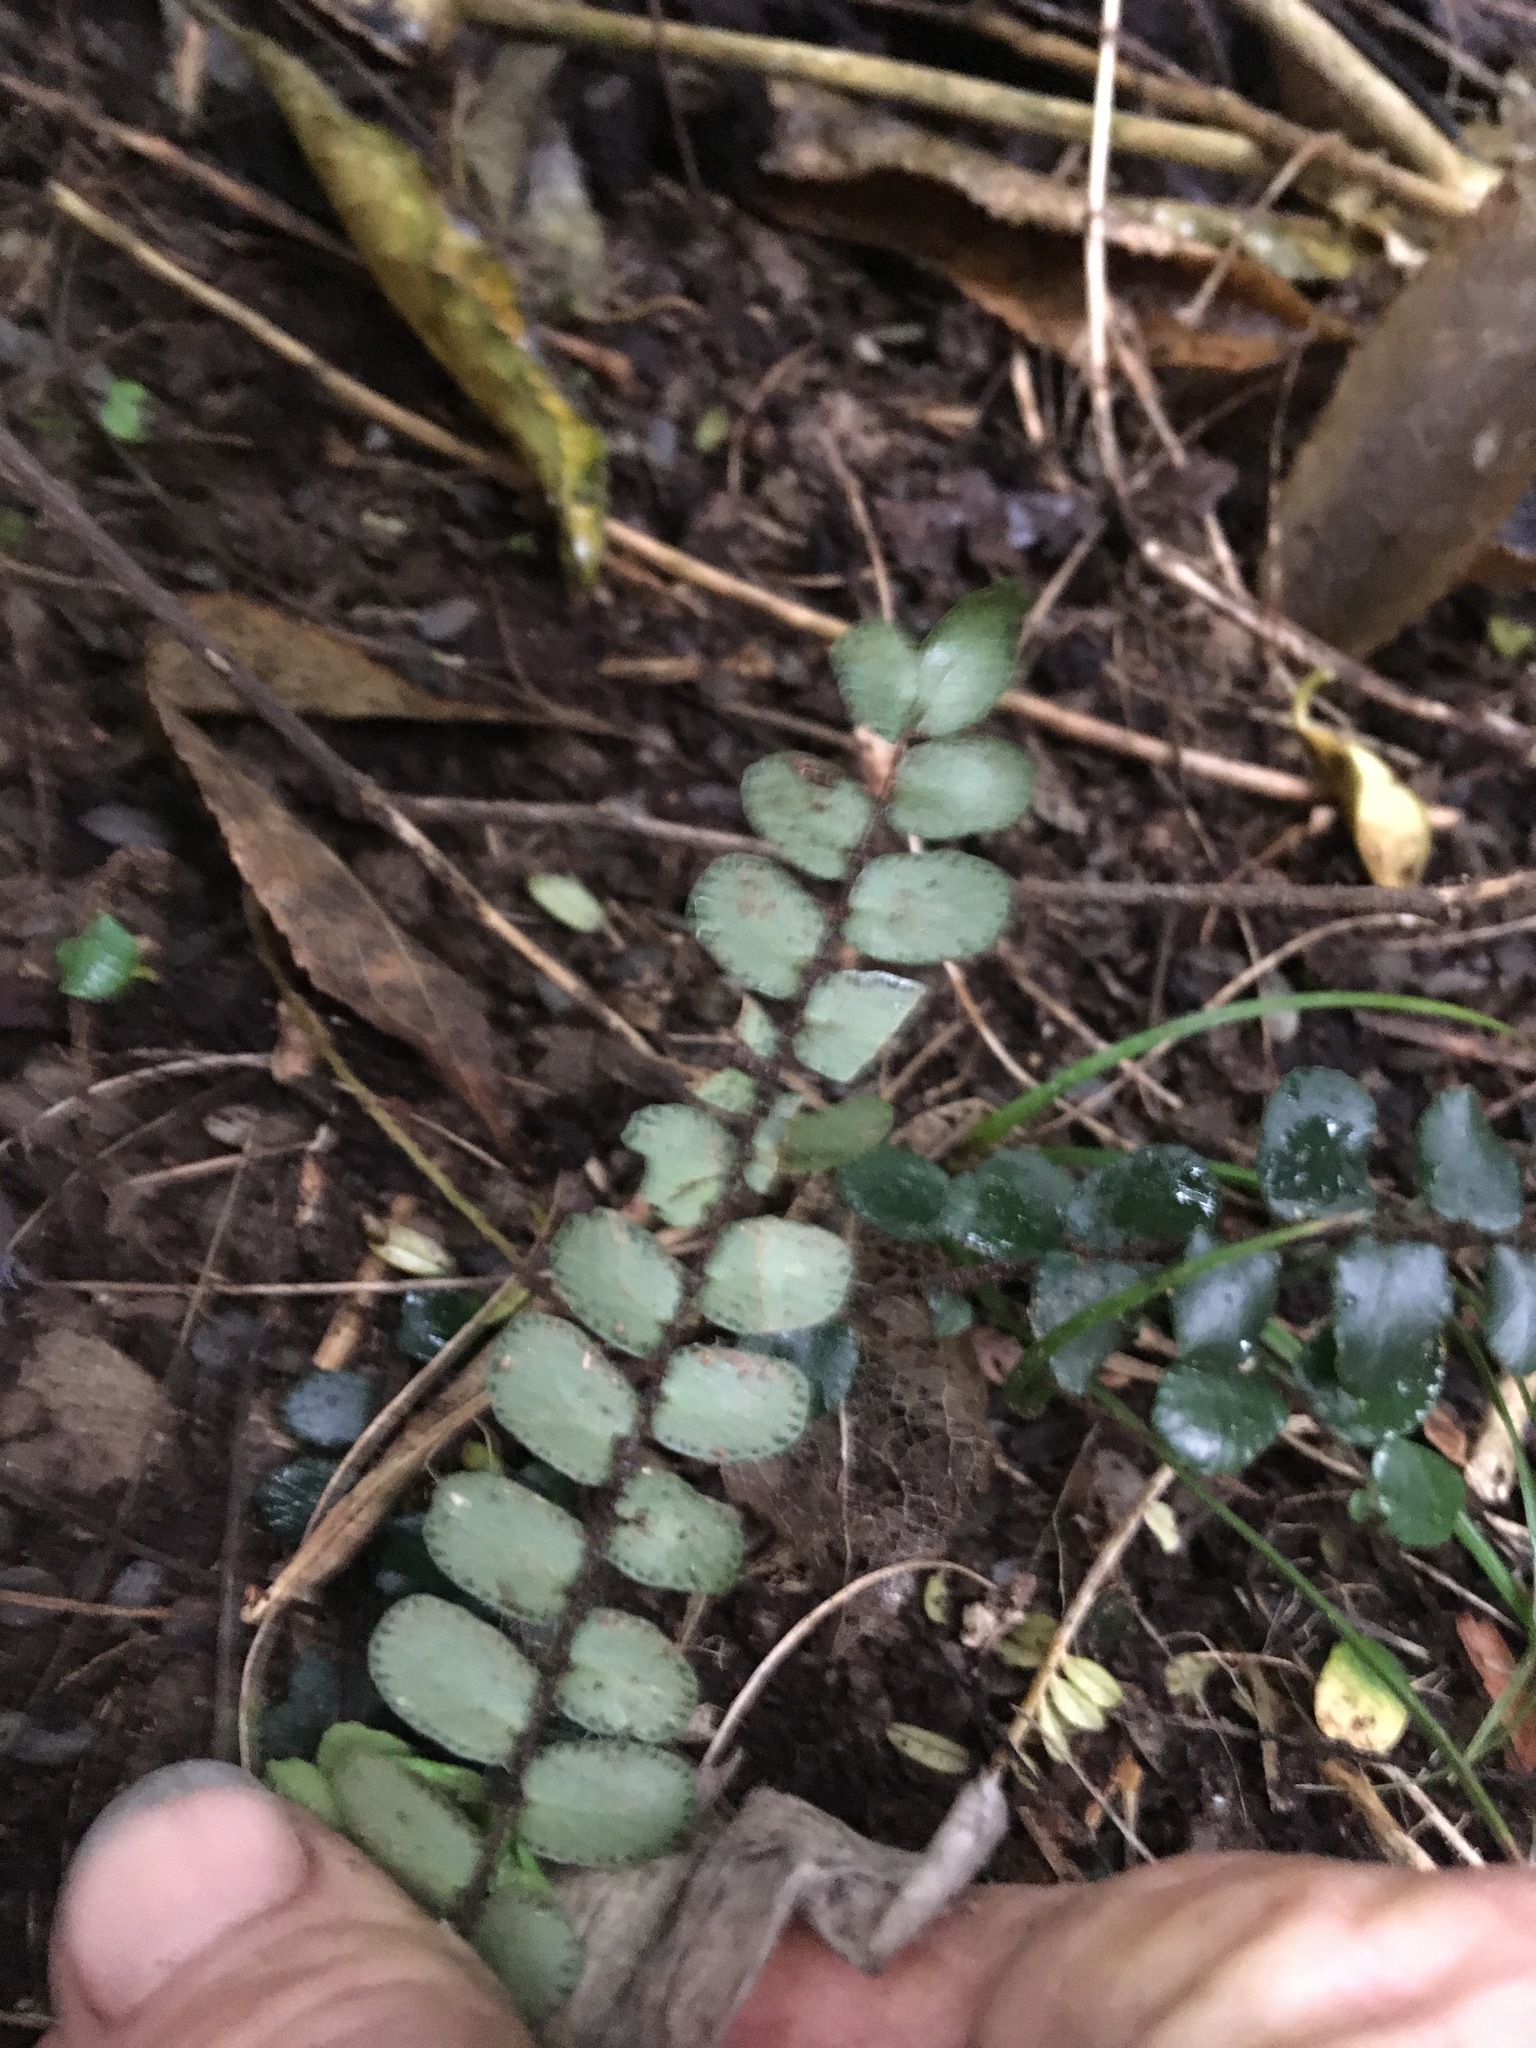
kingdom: Plantae
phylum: Tracheophyta
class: Polypodiopsida
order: Polypodiales
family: Pteridaceae
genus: Pellaea
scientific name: Pellaea rotundifolia
